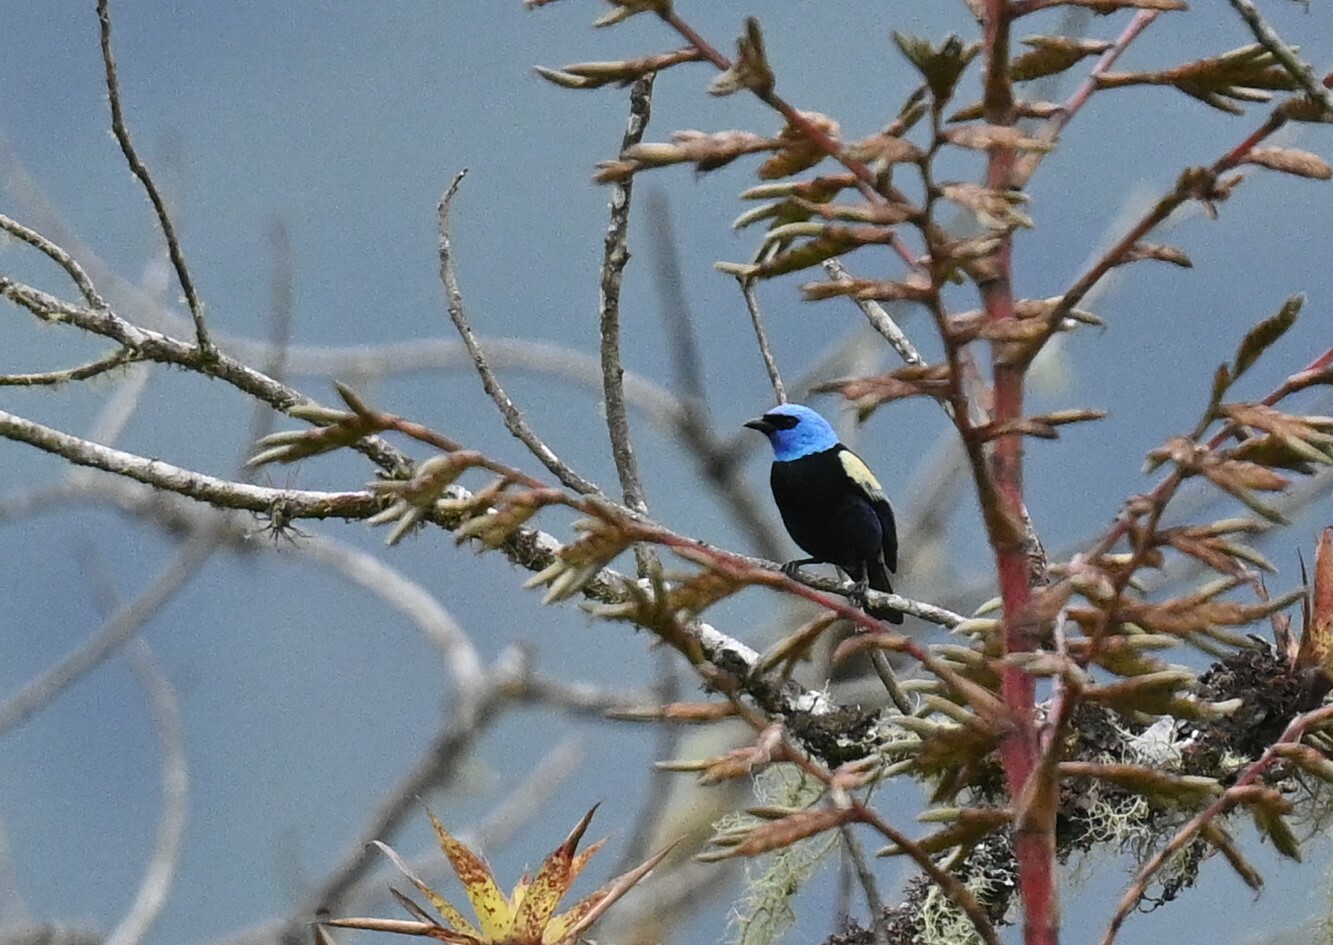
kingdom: Animalia
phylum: Chordata
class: Aves
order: Passeriformes
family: Thraupidae
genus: Stilpnia
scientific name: Stilpnia cyanicollis
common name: Blue-necked tanager
